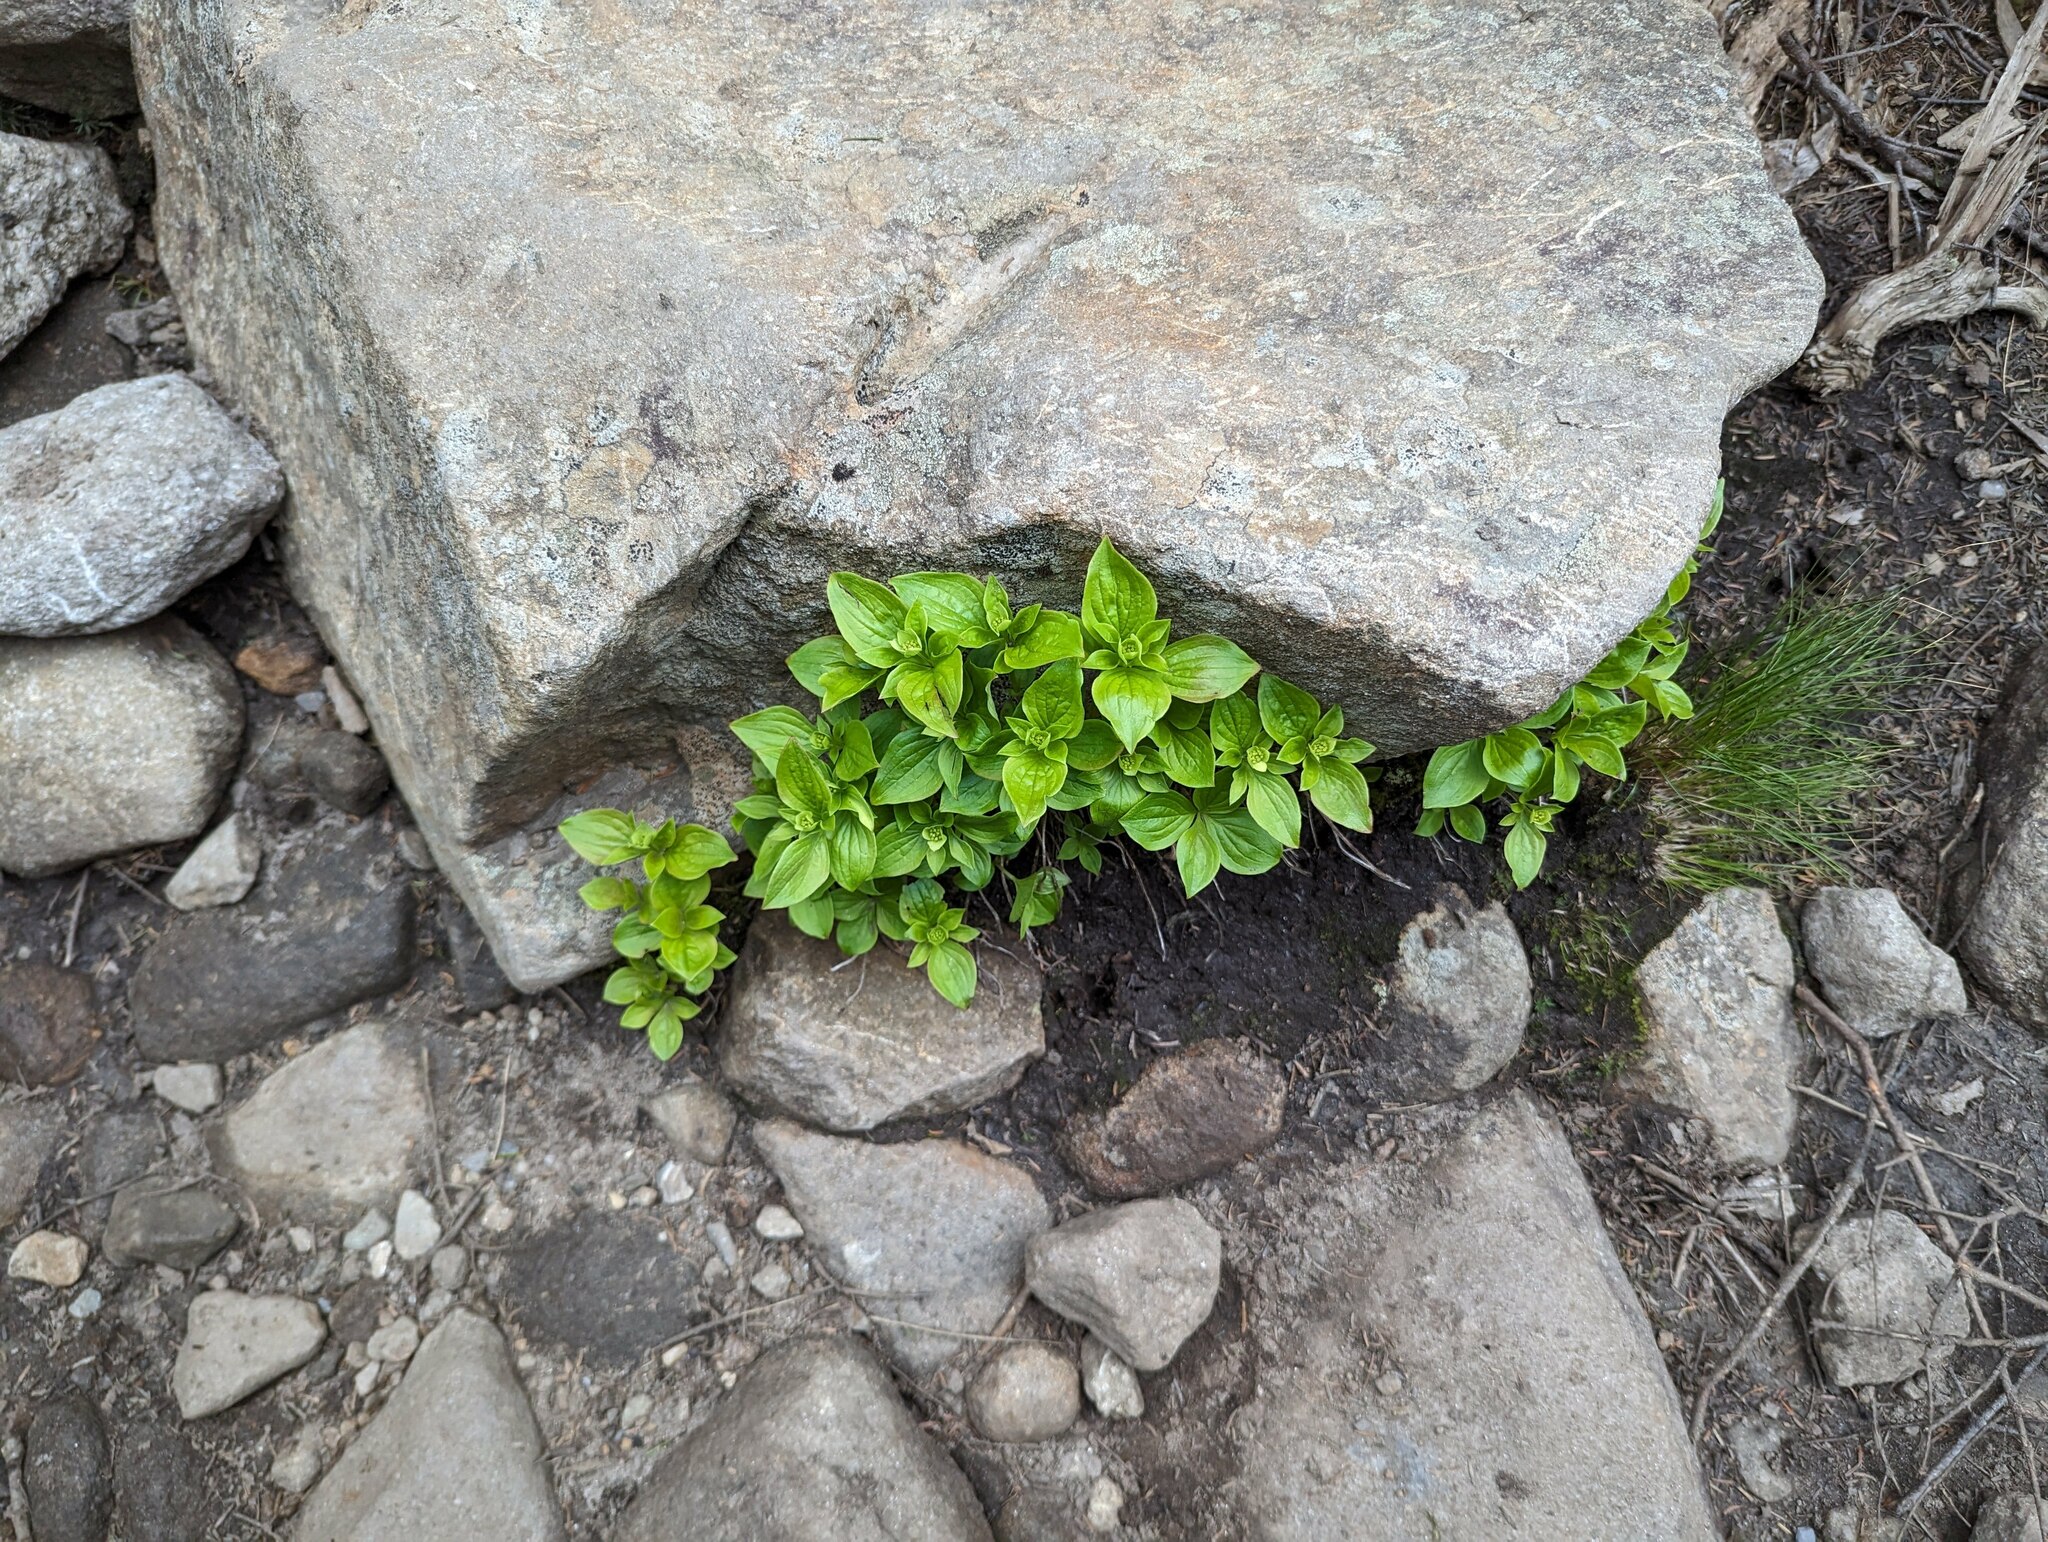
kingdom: Plantae
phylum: Tracheophyta
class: Magnoliopsida
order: Cornales
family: Cornaceae
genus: Cornus
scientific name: Cornus canadensis
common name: Creeping dogwood
